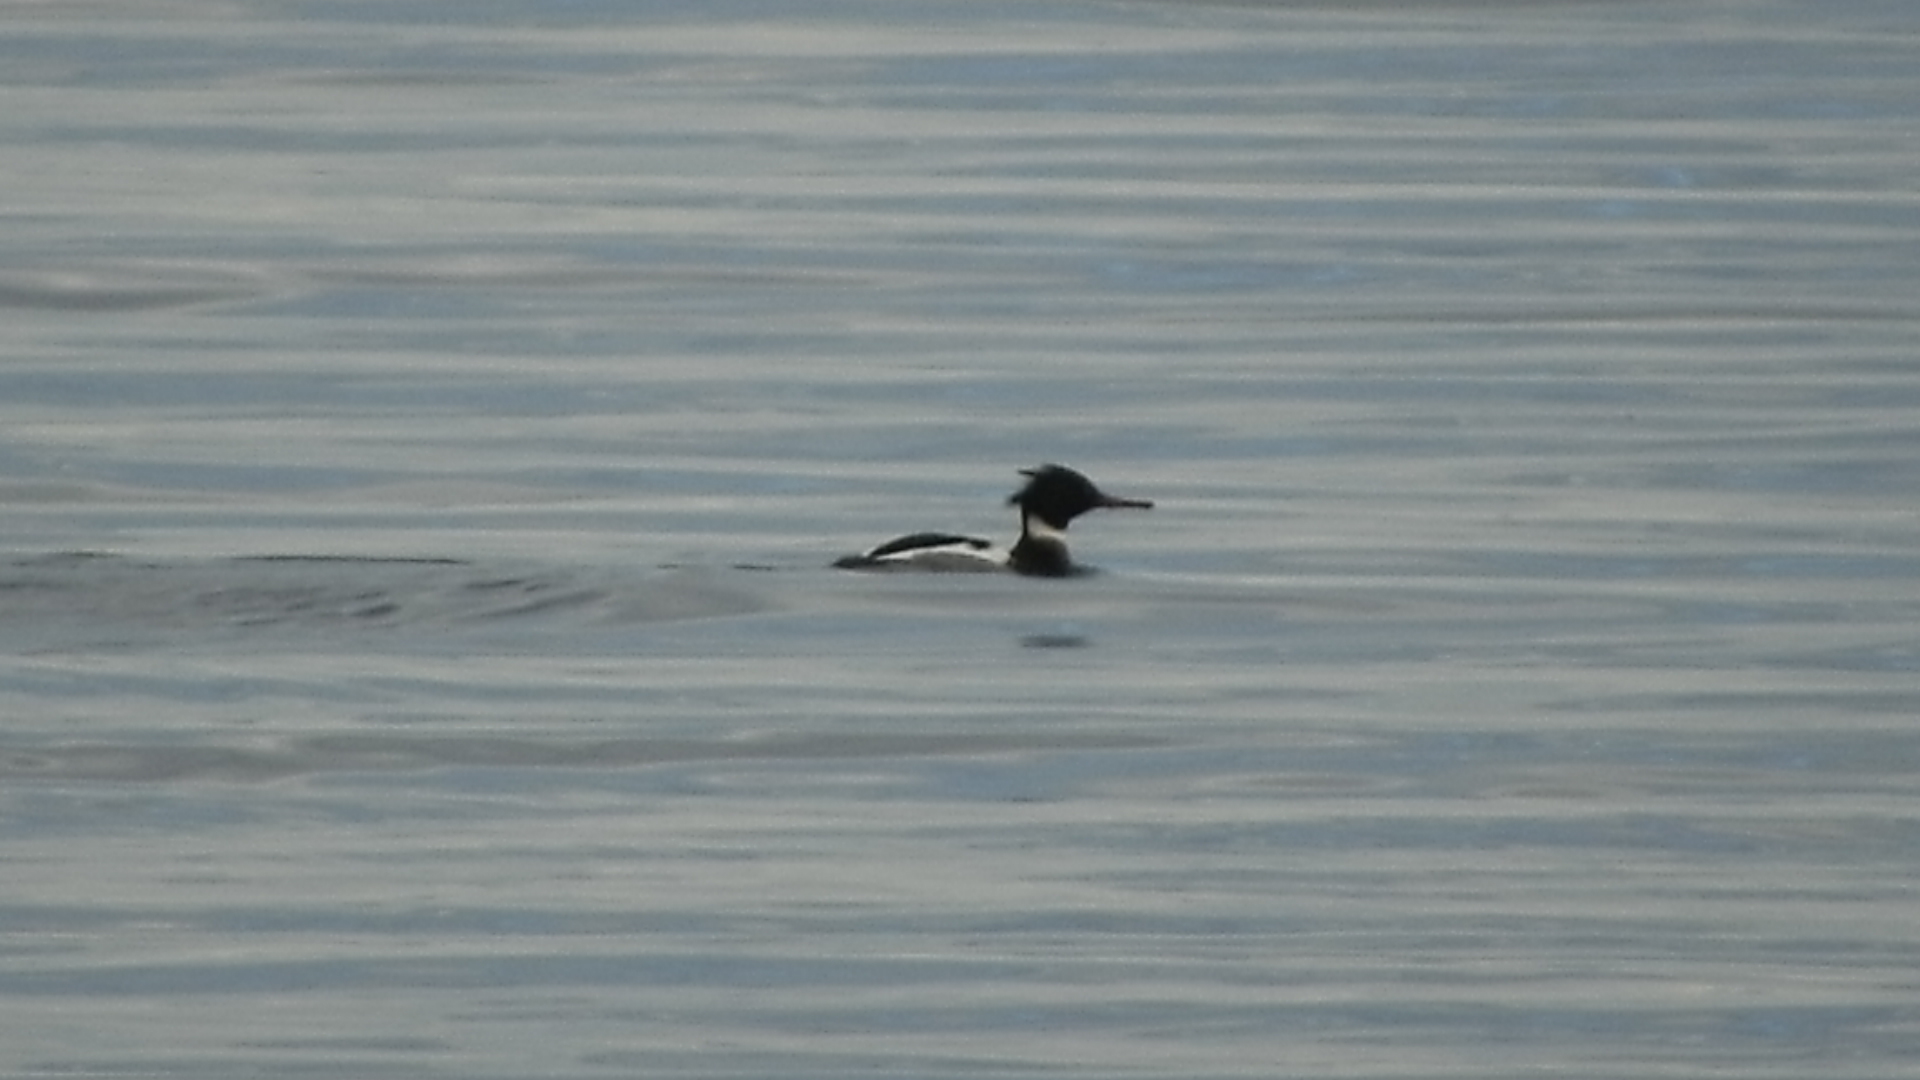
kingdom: Animalia
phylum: Chordata
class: Aves
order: Anseriformes
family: Anatidae
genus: Mergus
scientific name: Mergus serrator
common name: Red-breasted merganser
